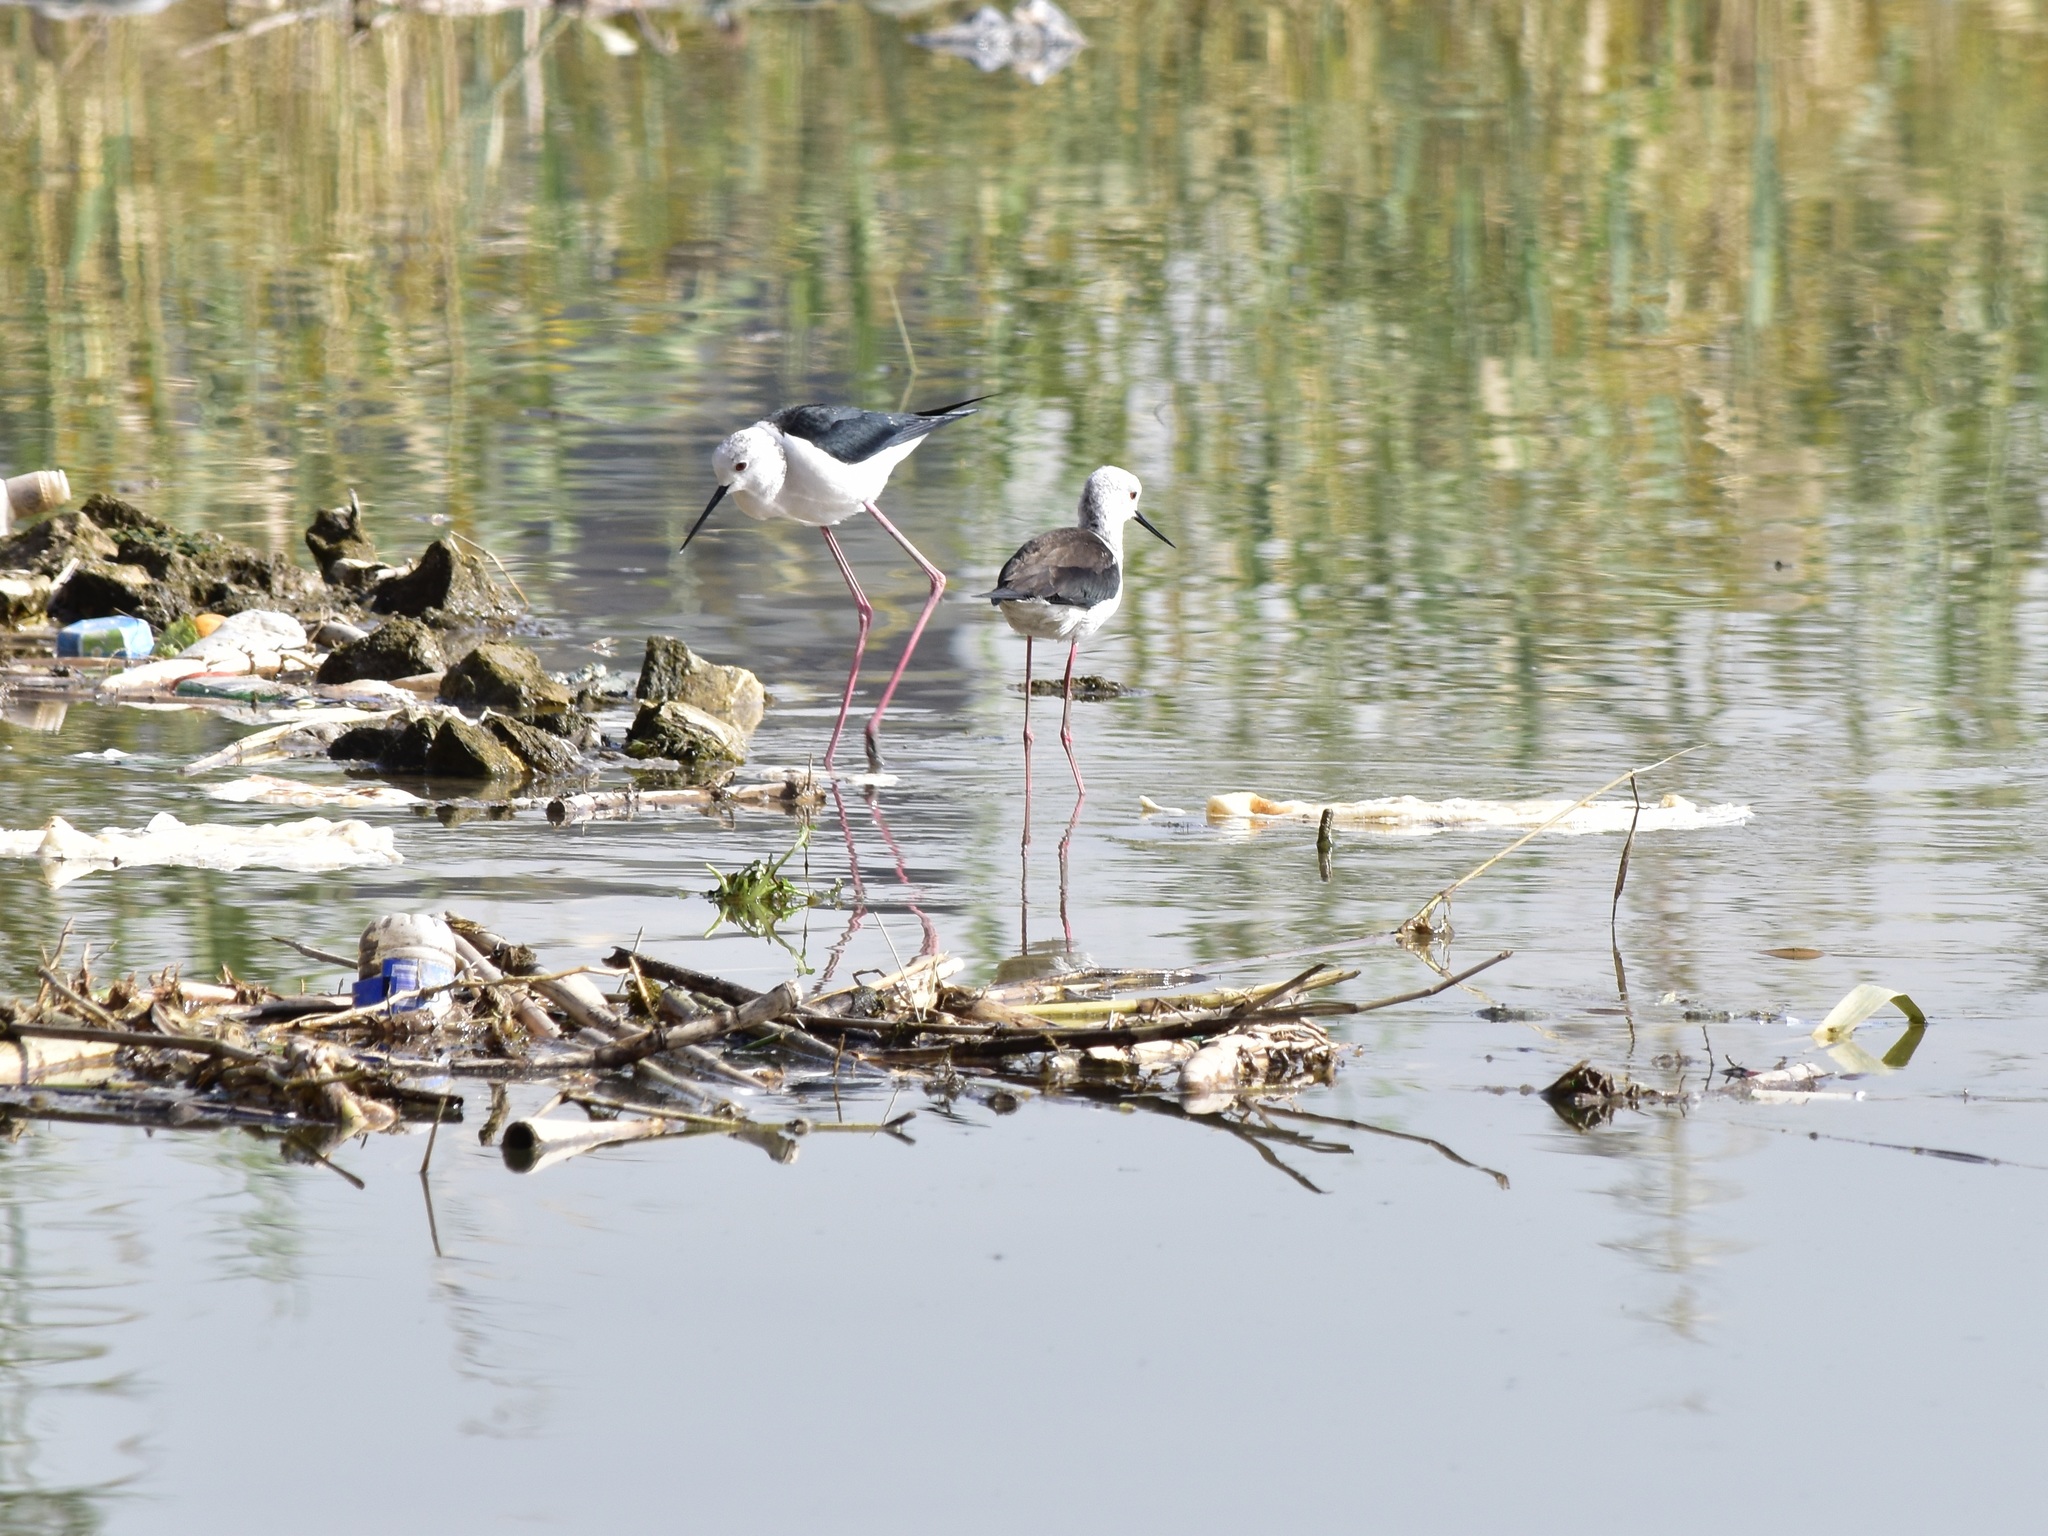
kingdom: Animalia
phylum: Chordata
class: Aves
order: Charadriiformes
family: Recurvirostridae
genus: Himantopus
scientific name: Himantopus himantopus
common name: Black-winged stilt
